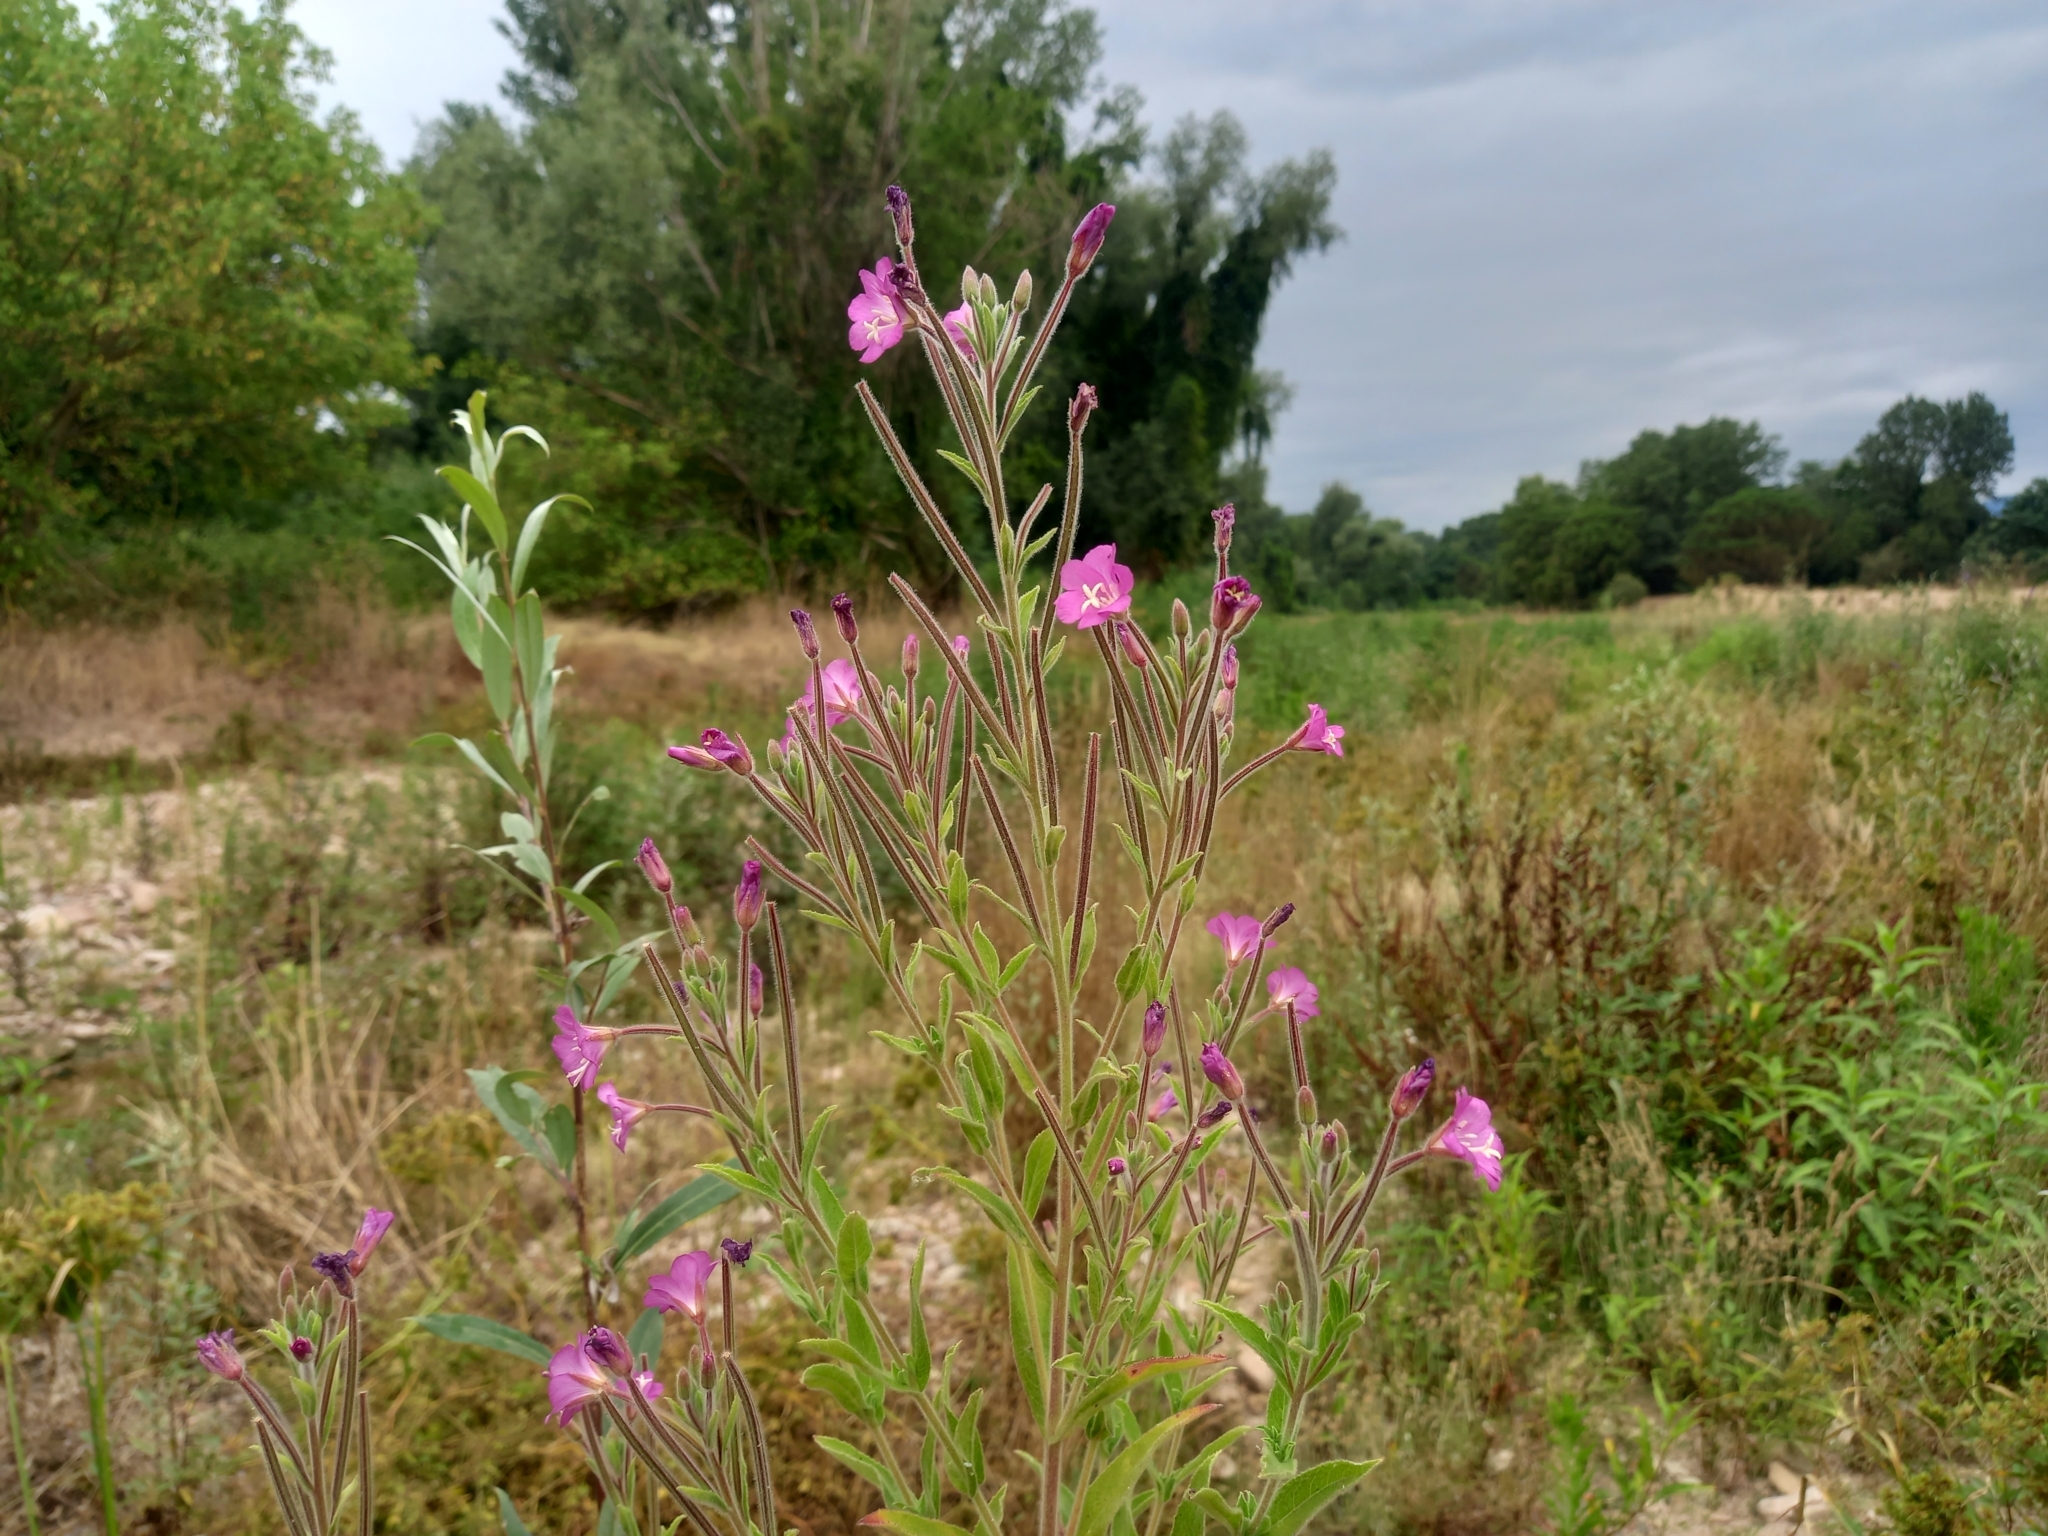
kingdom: Plantae
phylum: Tracheophyta
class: Magnoliopsida
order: Myrtales
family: Onagraceae
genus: Epilobium
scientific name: Epilobium hirsutum
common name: Great willowherb
